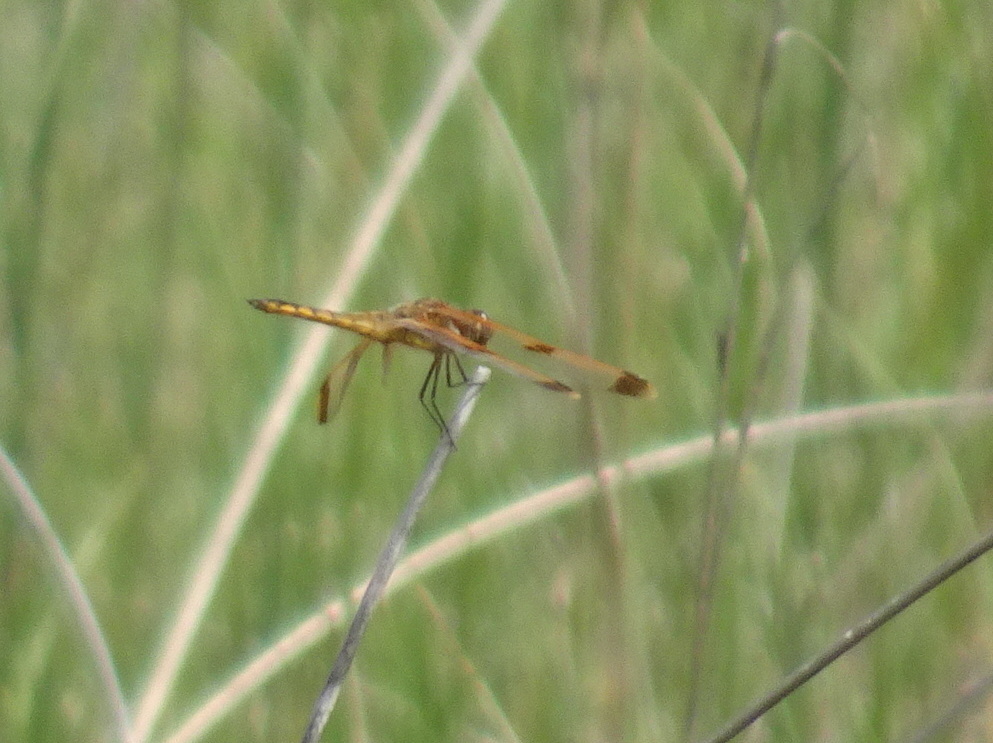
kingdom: Animalia
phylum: Arthropoda
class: Insecta
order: Odonata
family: Libellulidae
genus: Libellula
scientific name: Libellula semifasciata
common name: Painted skimmer
